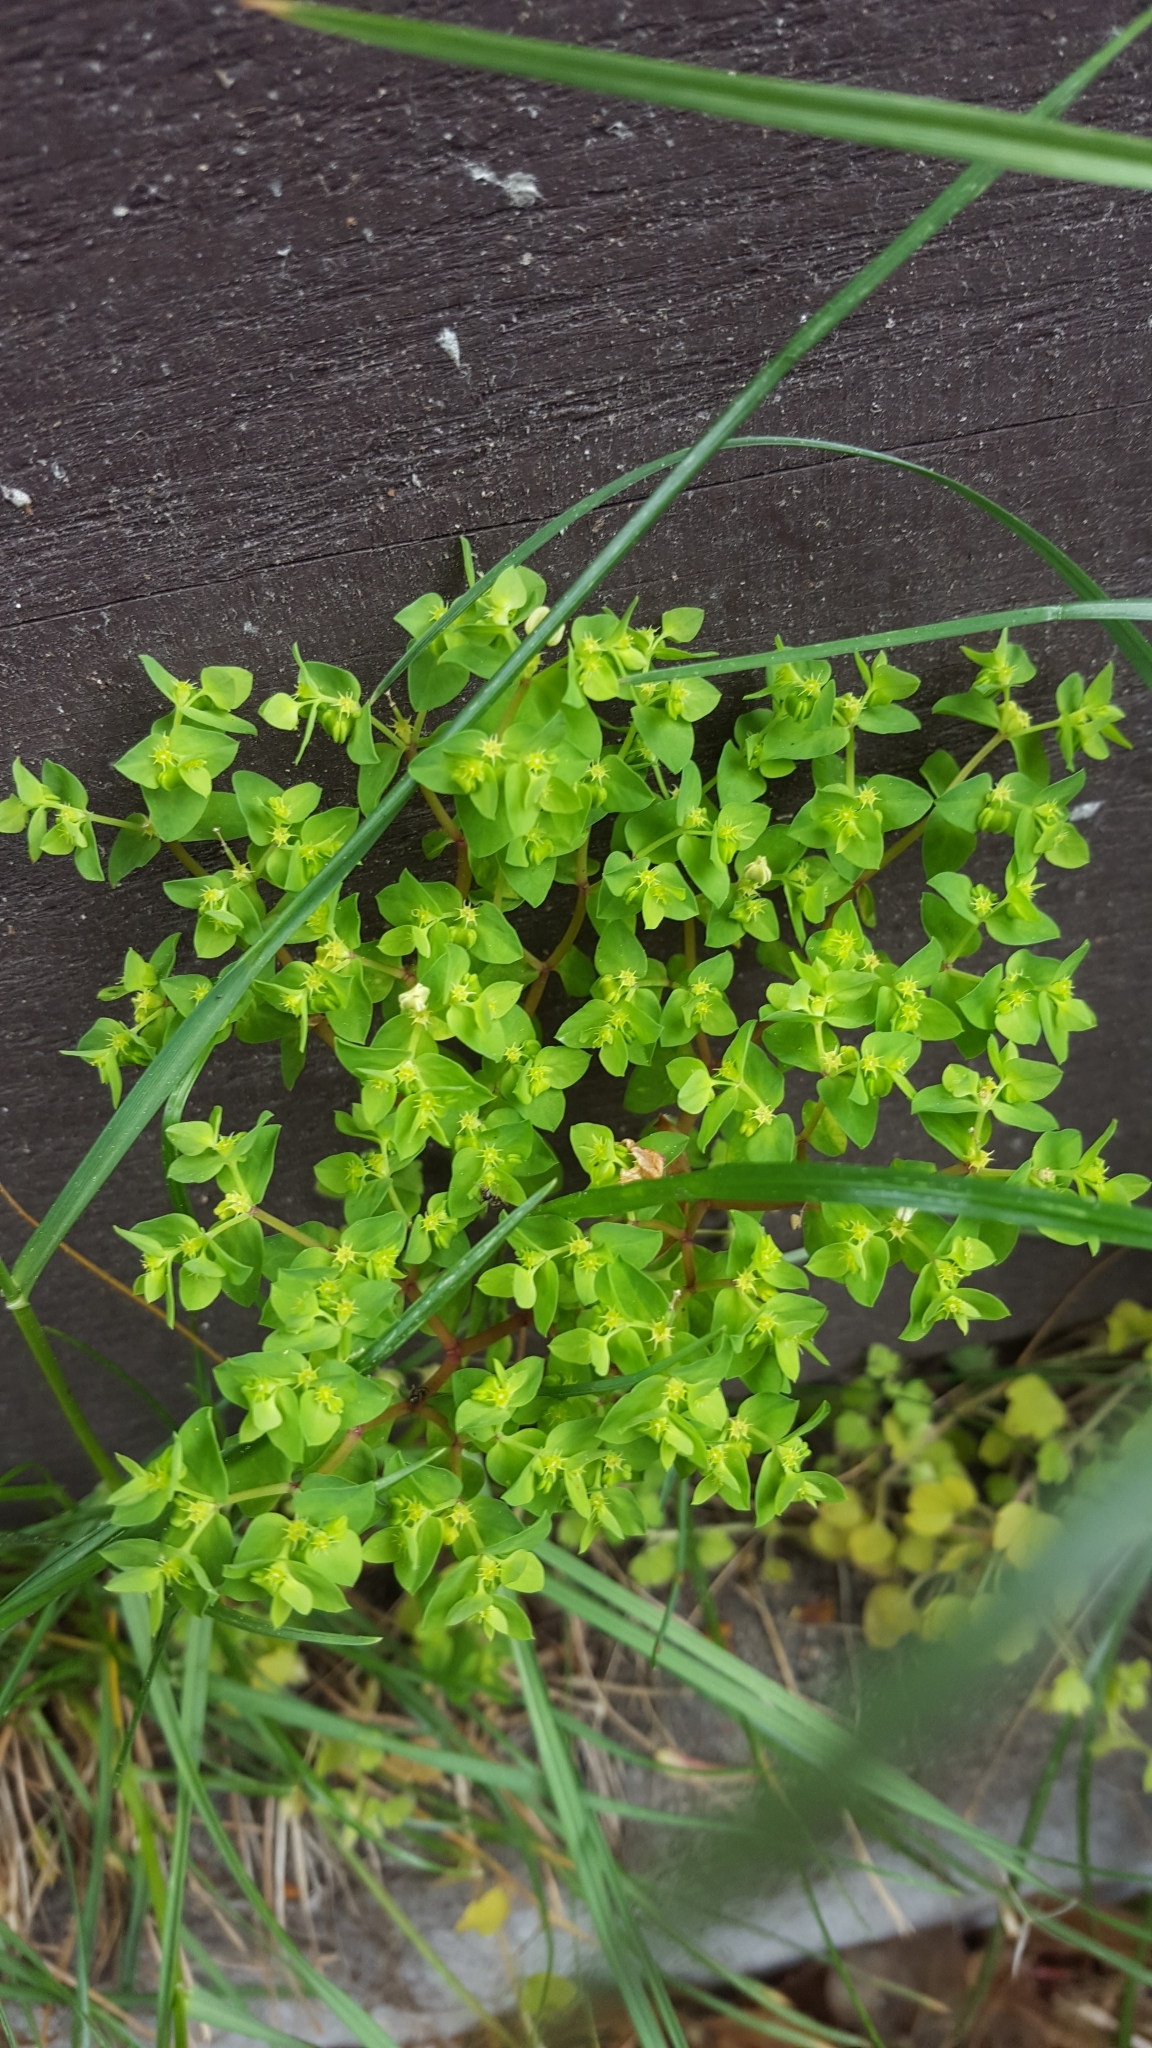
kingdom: Plantae
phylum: Tracheophyta
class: Magnoliopsida
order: Malpighiales
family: Euphorbiaceae
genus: Euphorbia
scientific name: Euphorbia peplus
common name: Petty spurge
